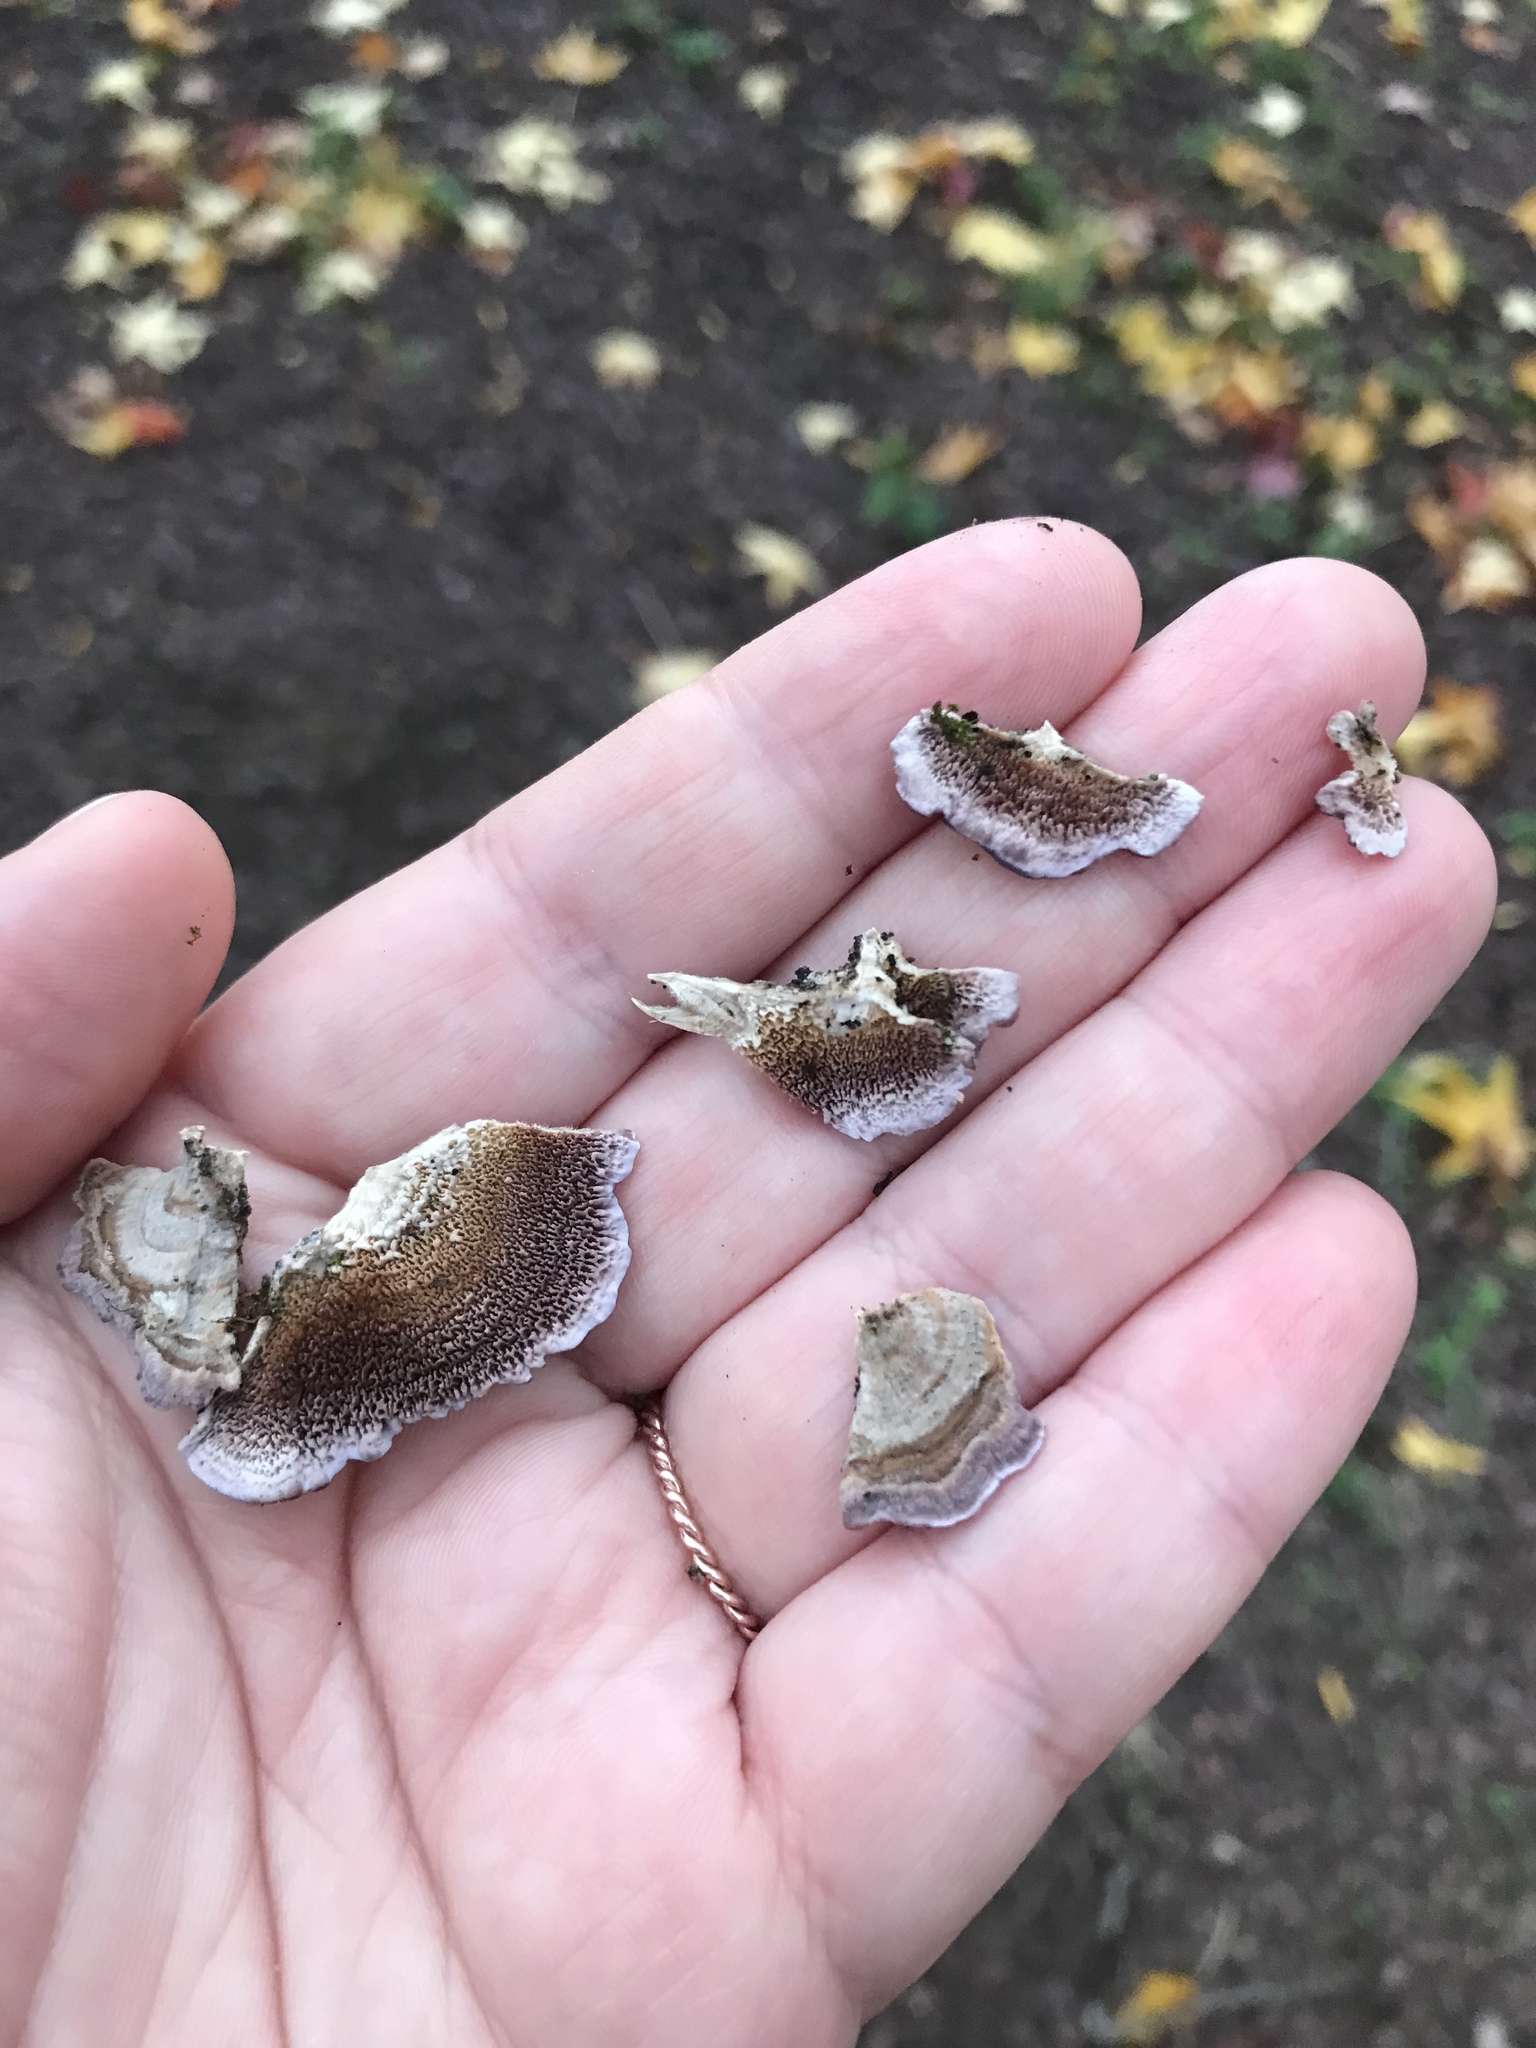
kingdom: Fungi
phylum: Basidiomycota
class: Agaricomycetes
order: Hymenochaetales
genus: Trichaptum
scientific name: Trichaptum biforme
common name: Violet-toothed polypore
